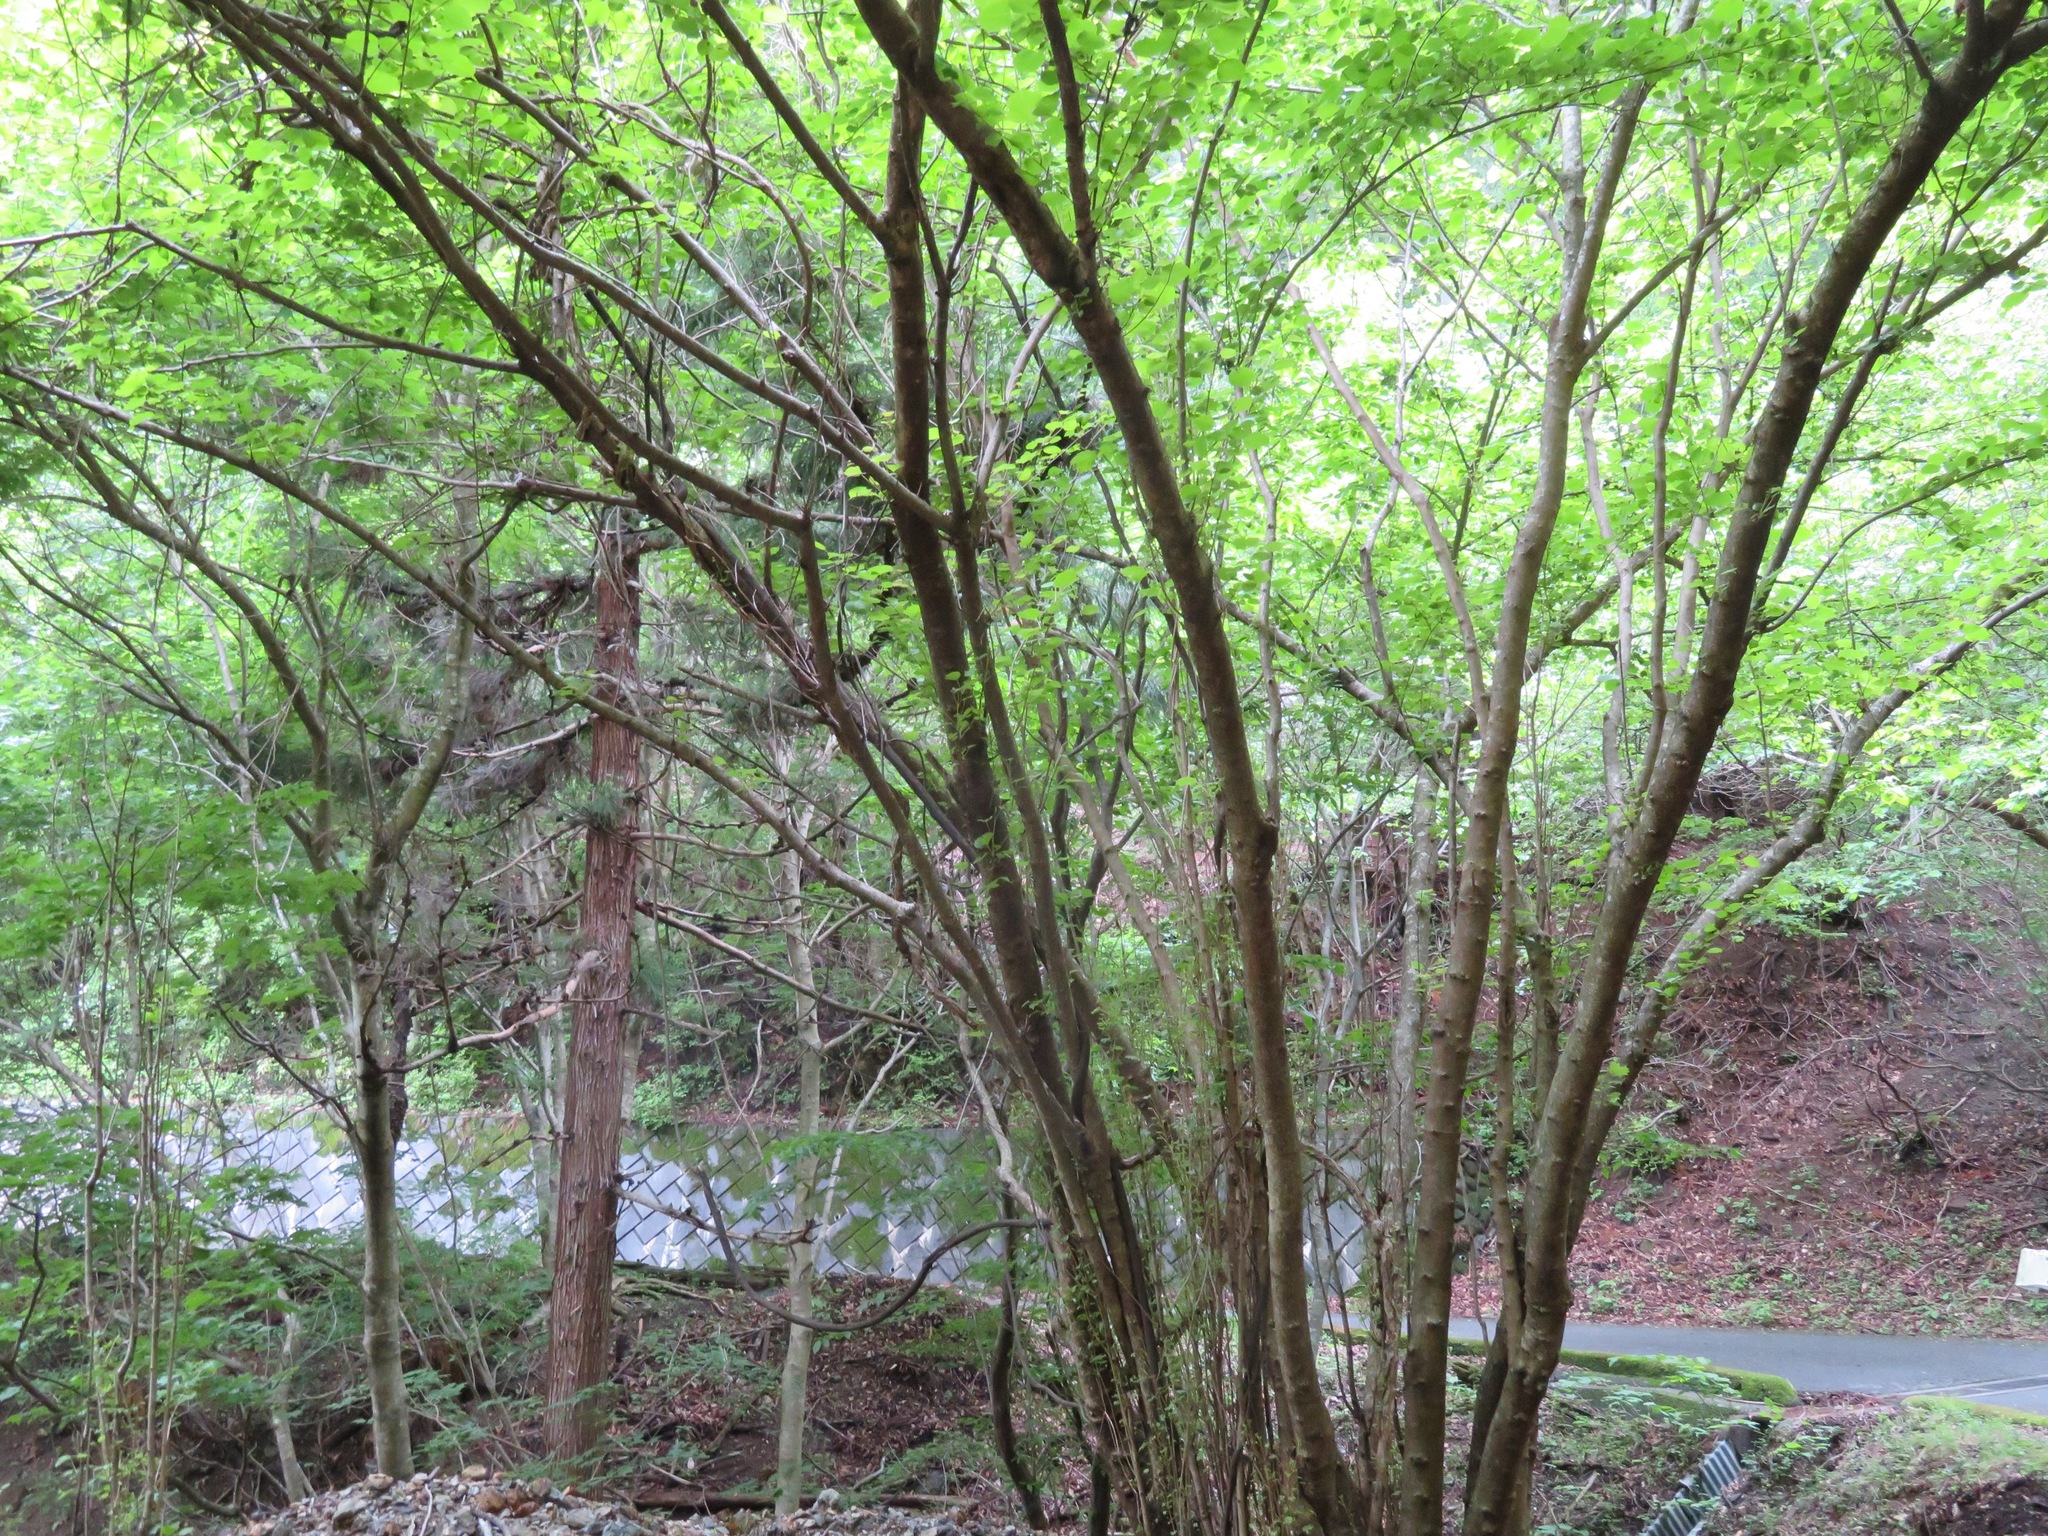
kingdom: Plantae
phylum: Tracheophyta
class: Magnoliopsida
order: Ranunculales
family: Eupteleaceae
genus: Euptelea
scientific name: Euptelea polyandra
